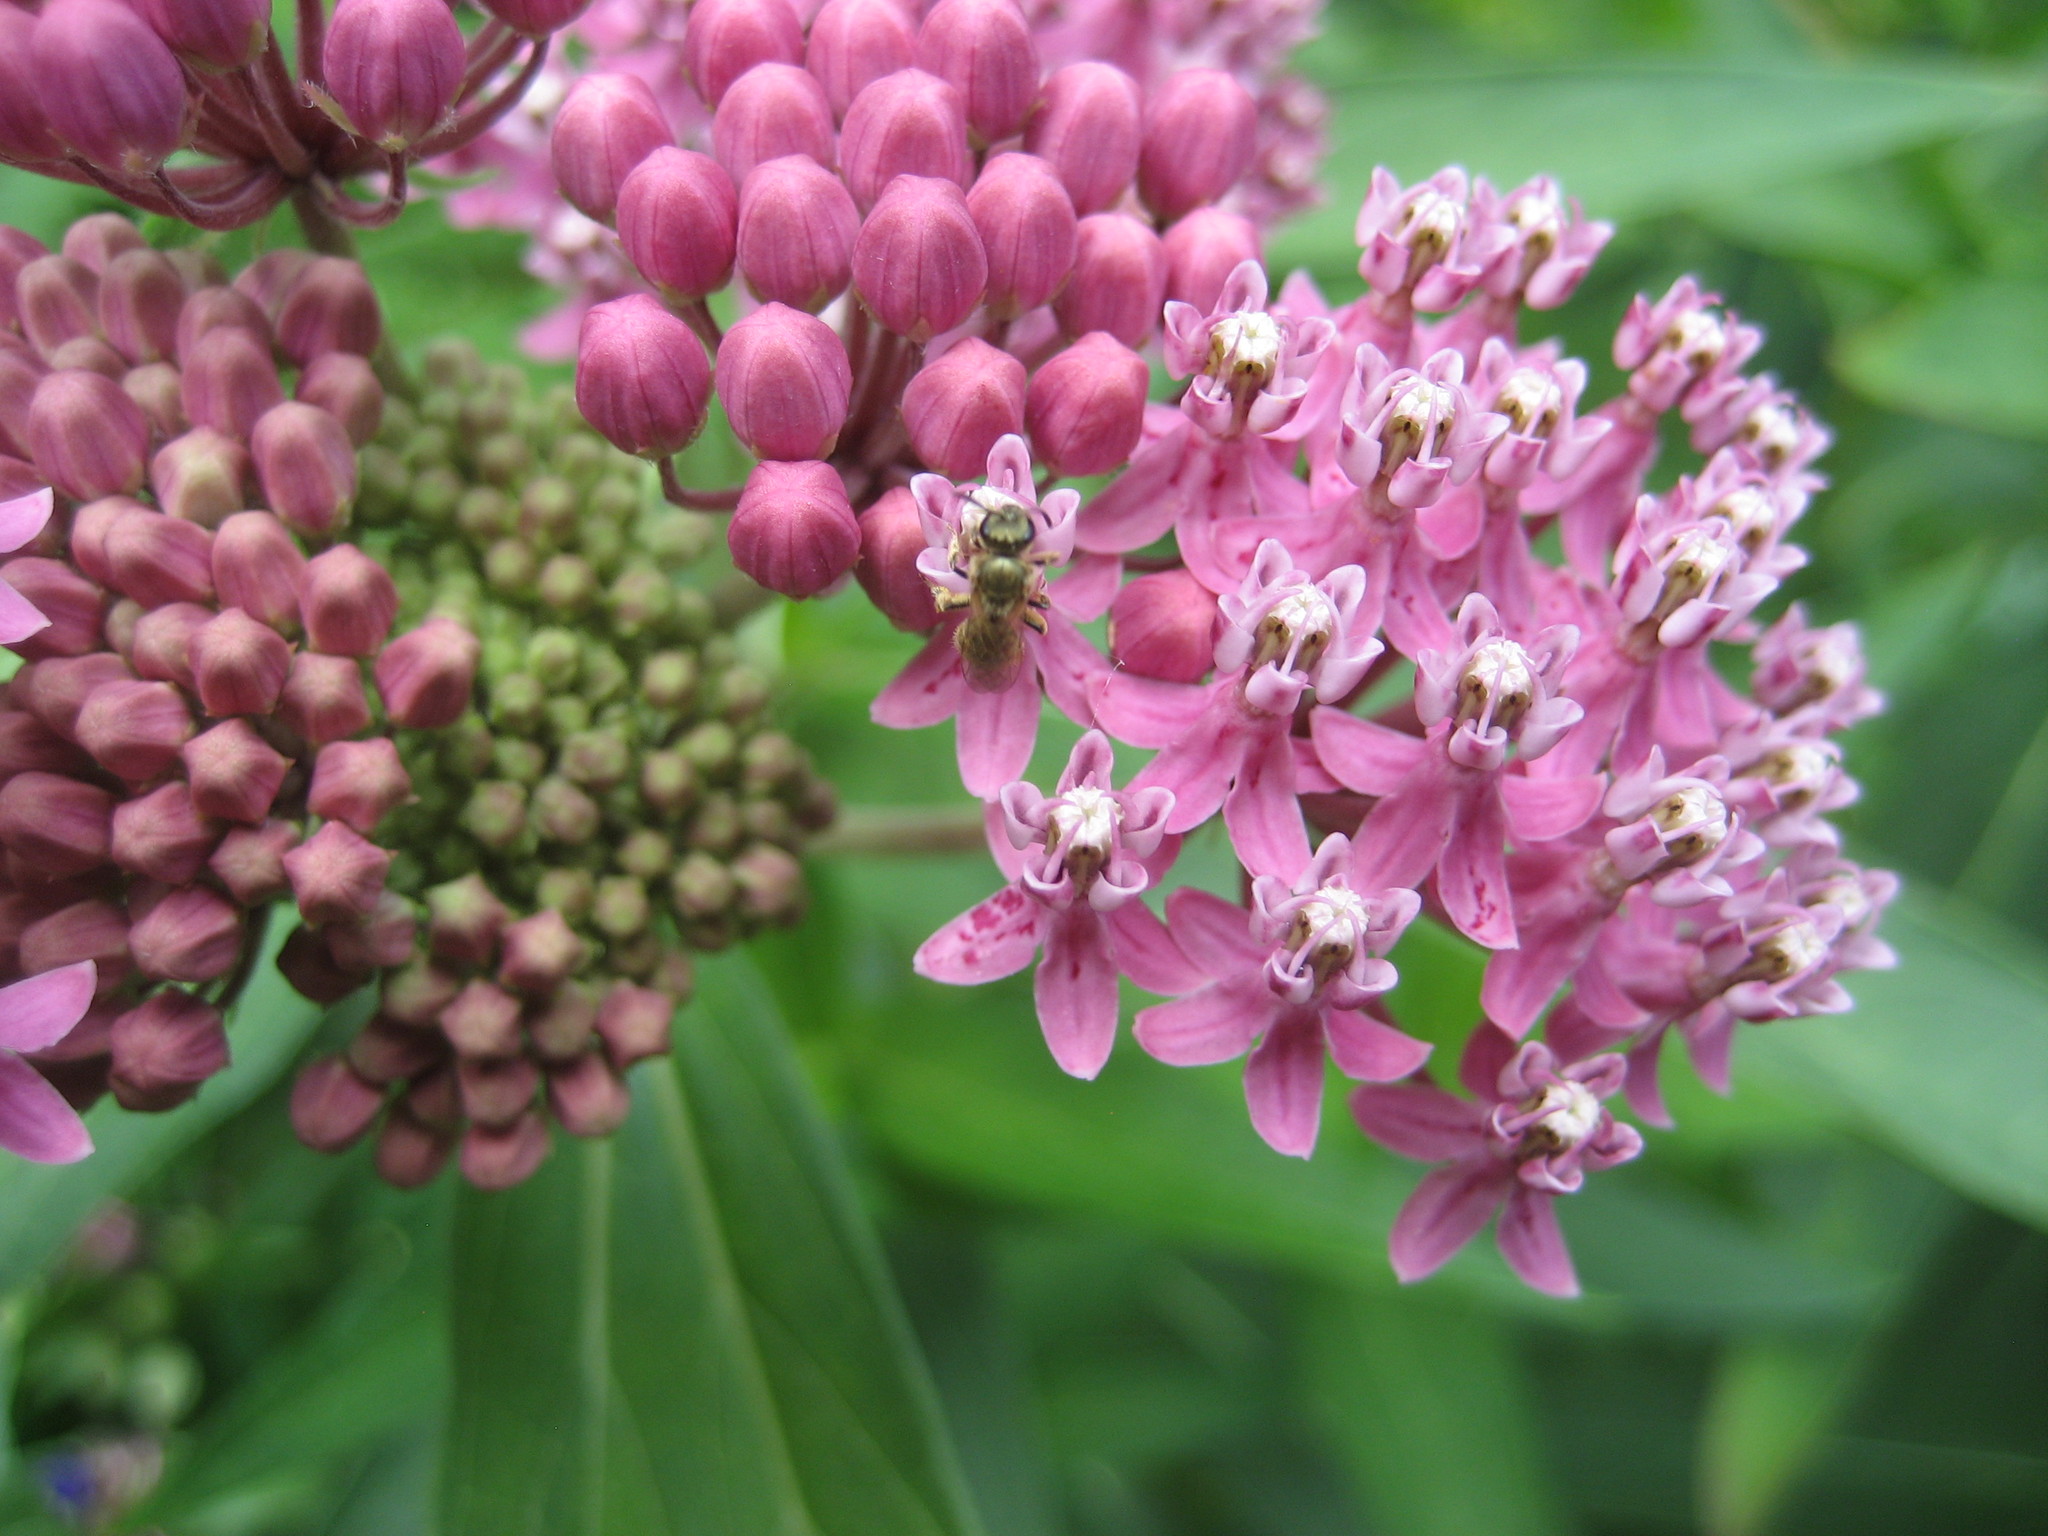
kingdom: Animalia
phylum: Arthropoda
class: Insecta
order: Hymenoptera
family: Halictidae
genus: Dialictus
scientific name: Dialictus
